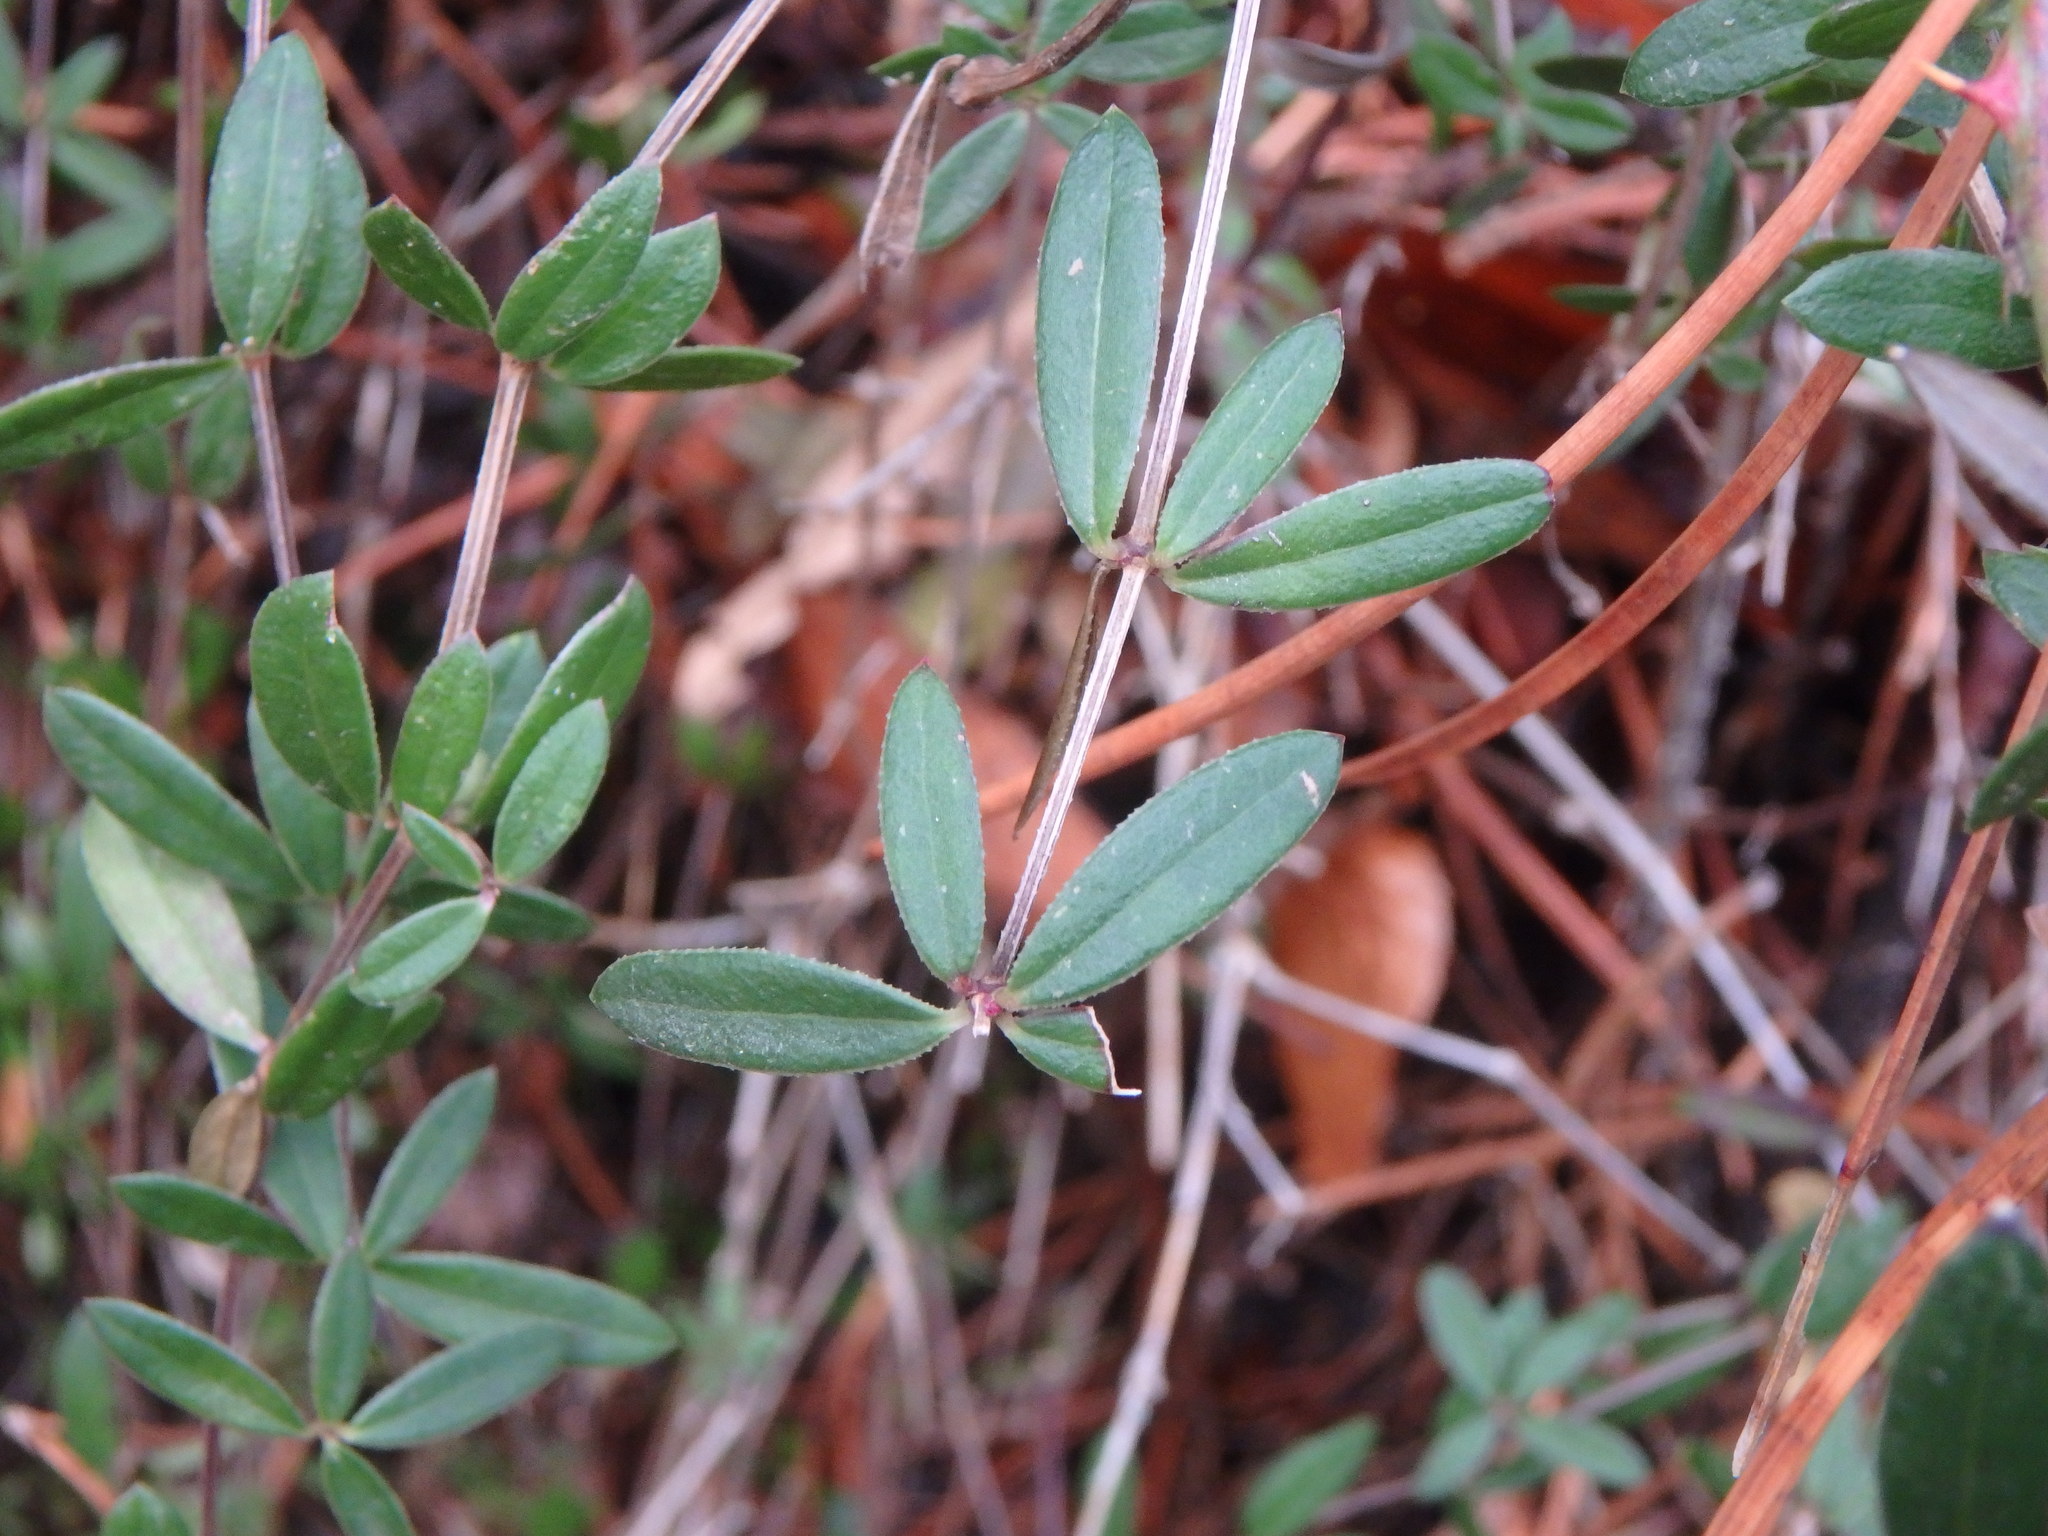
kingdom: Plantae
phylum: Tracheophyta
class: Magnoliopsida
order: Gentianales
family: Rubiaceae
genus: Rubia
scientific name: Rubia tenuifolia
